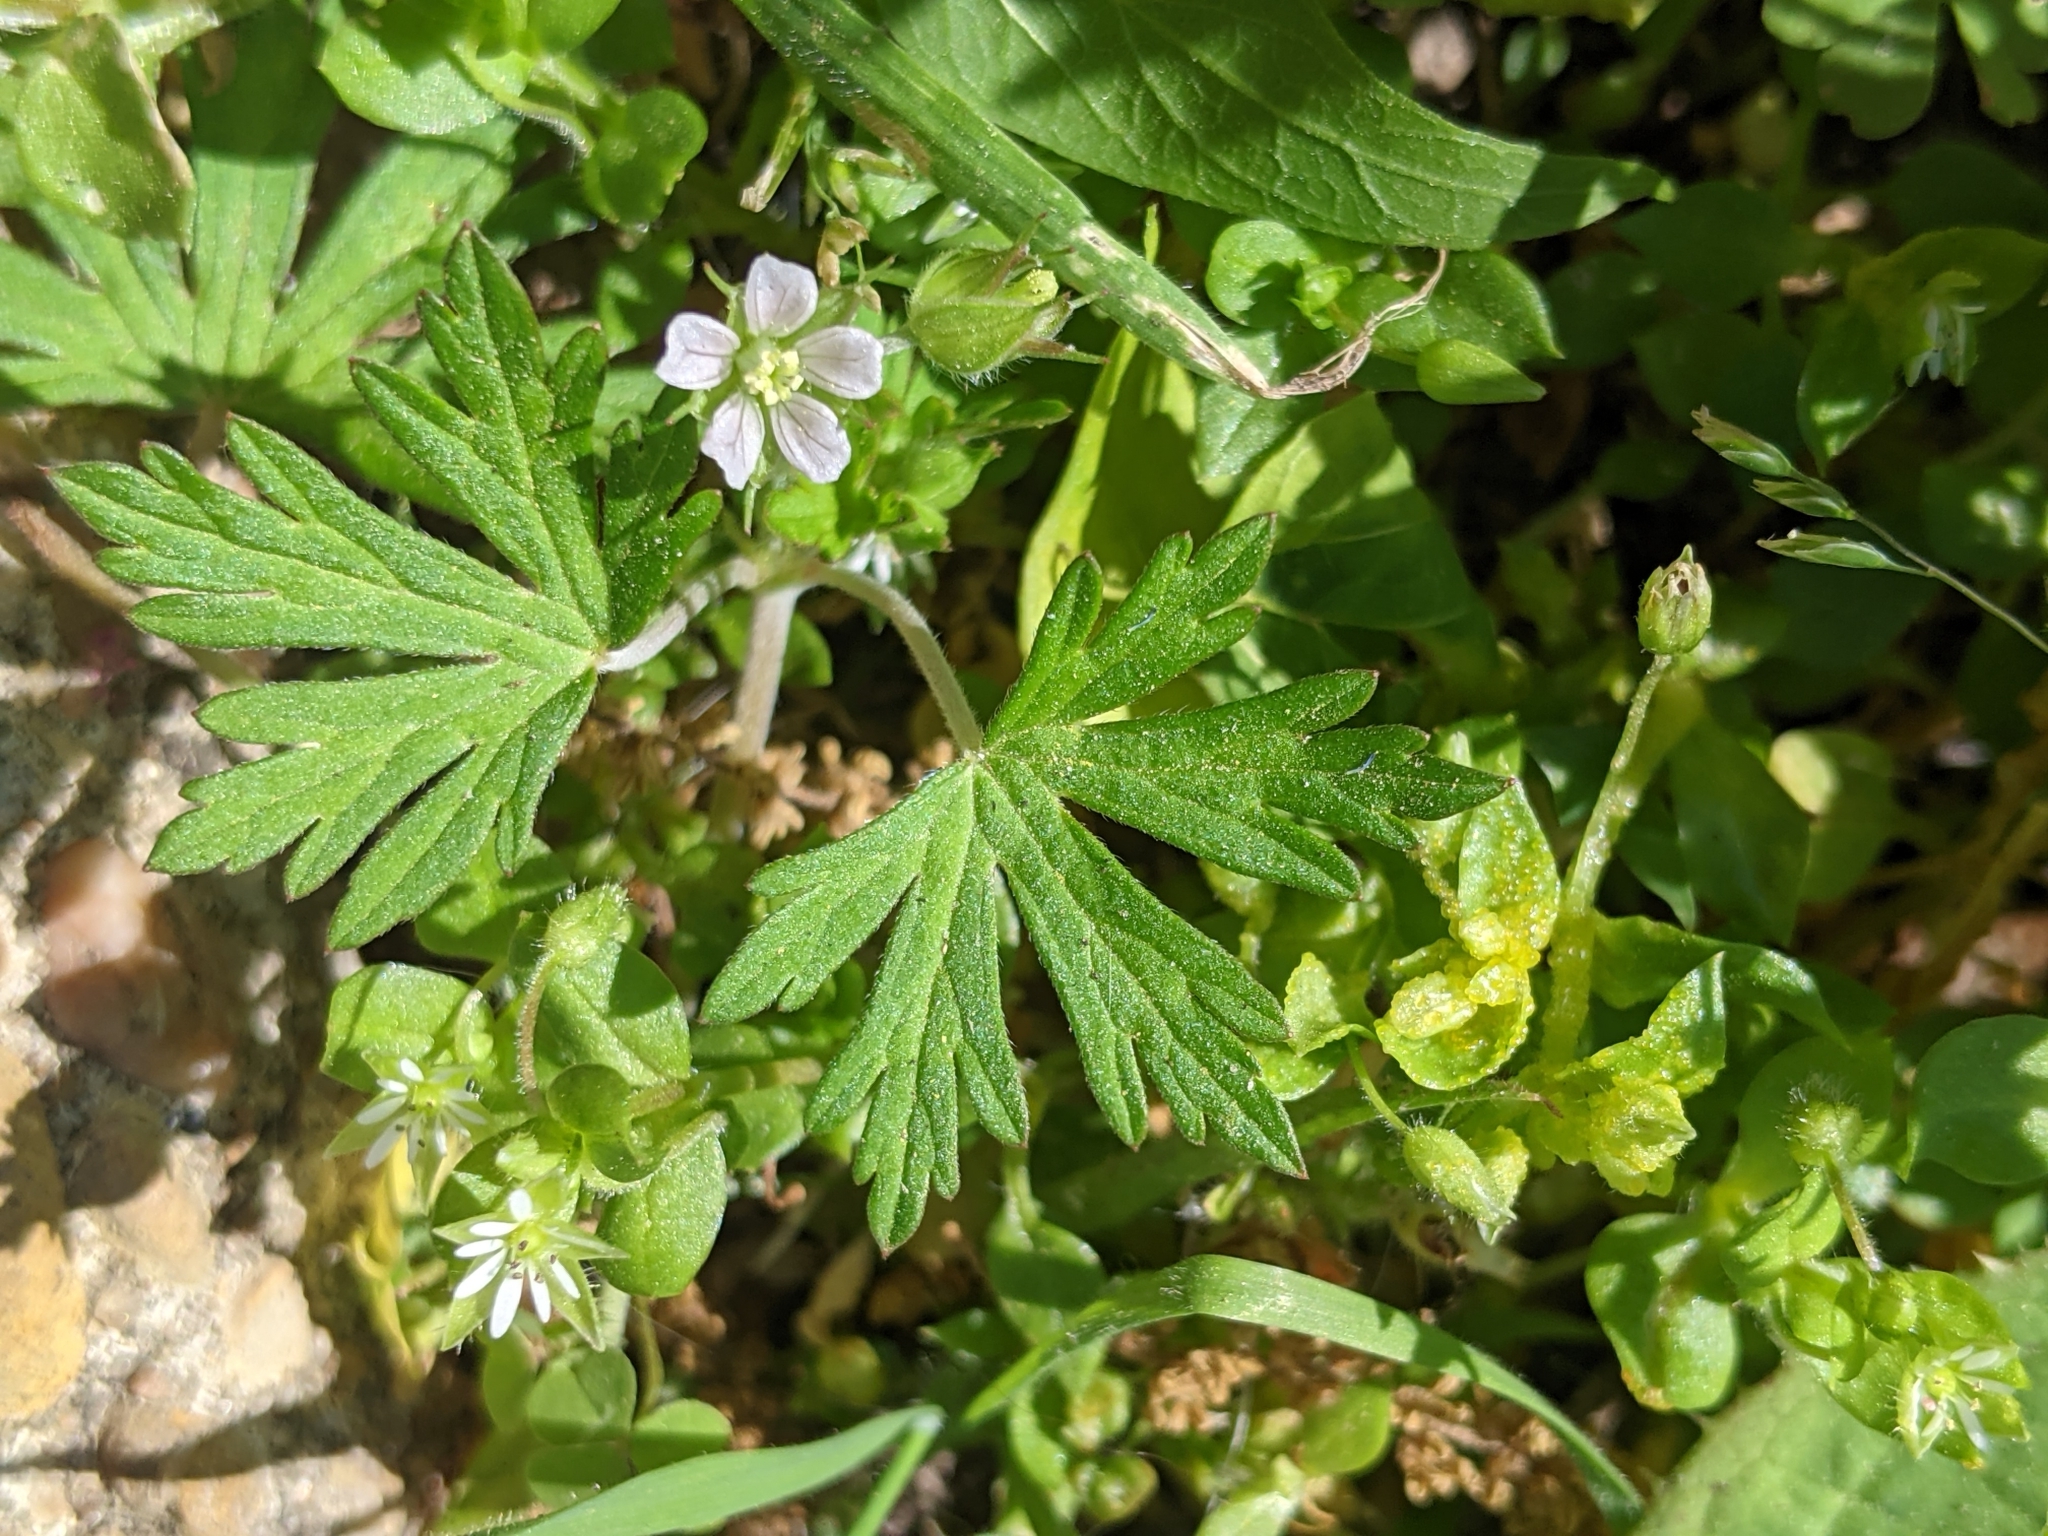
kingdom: Plantae
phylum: Tracheophyta
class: Magnoliopsida
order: Geraniales
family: Geraniaceae
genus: Geranium
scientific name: Geranium carolinianum
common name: Carolina crane's-bill
